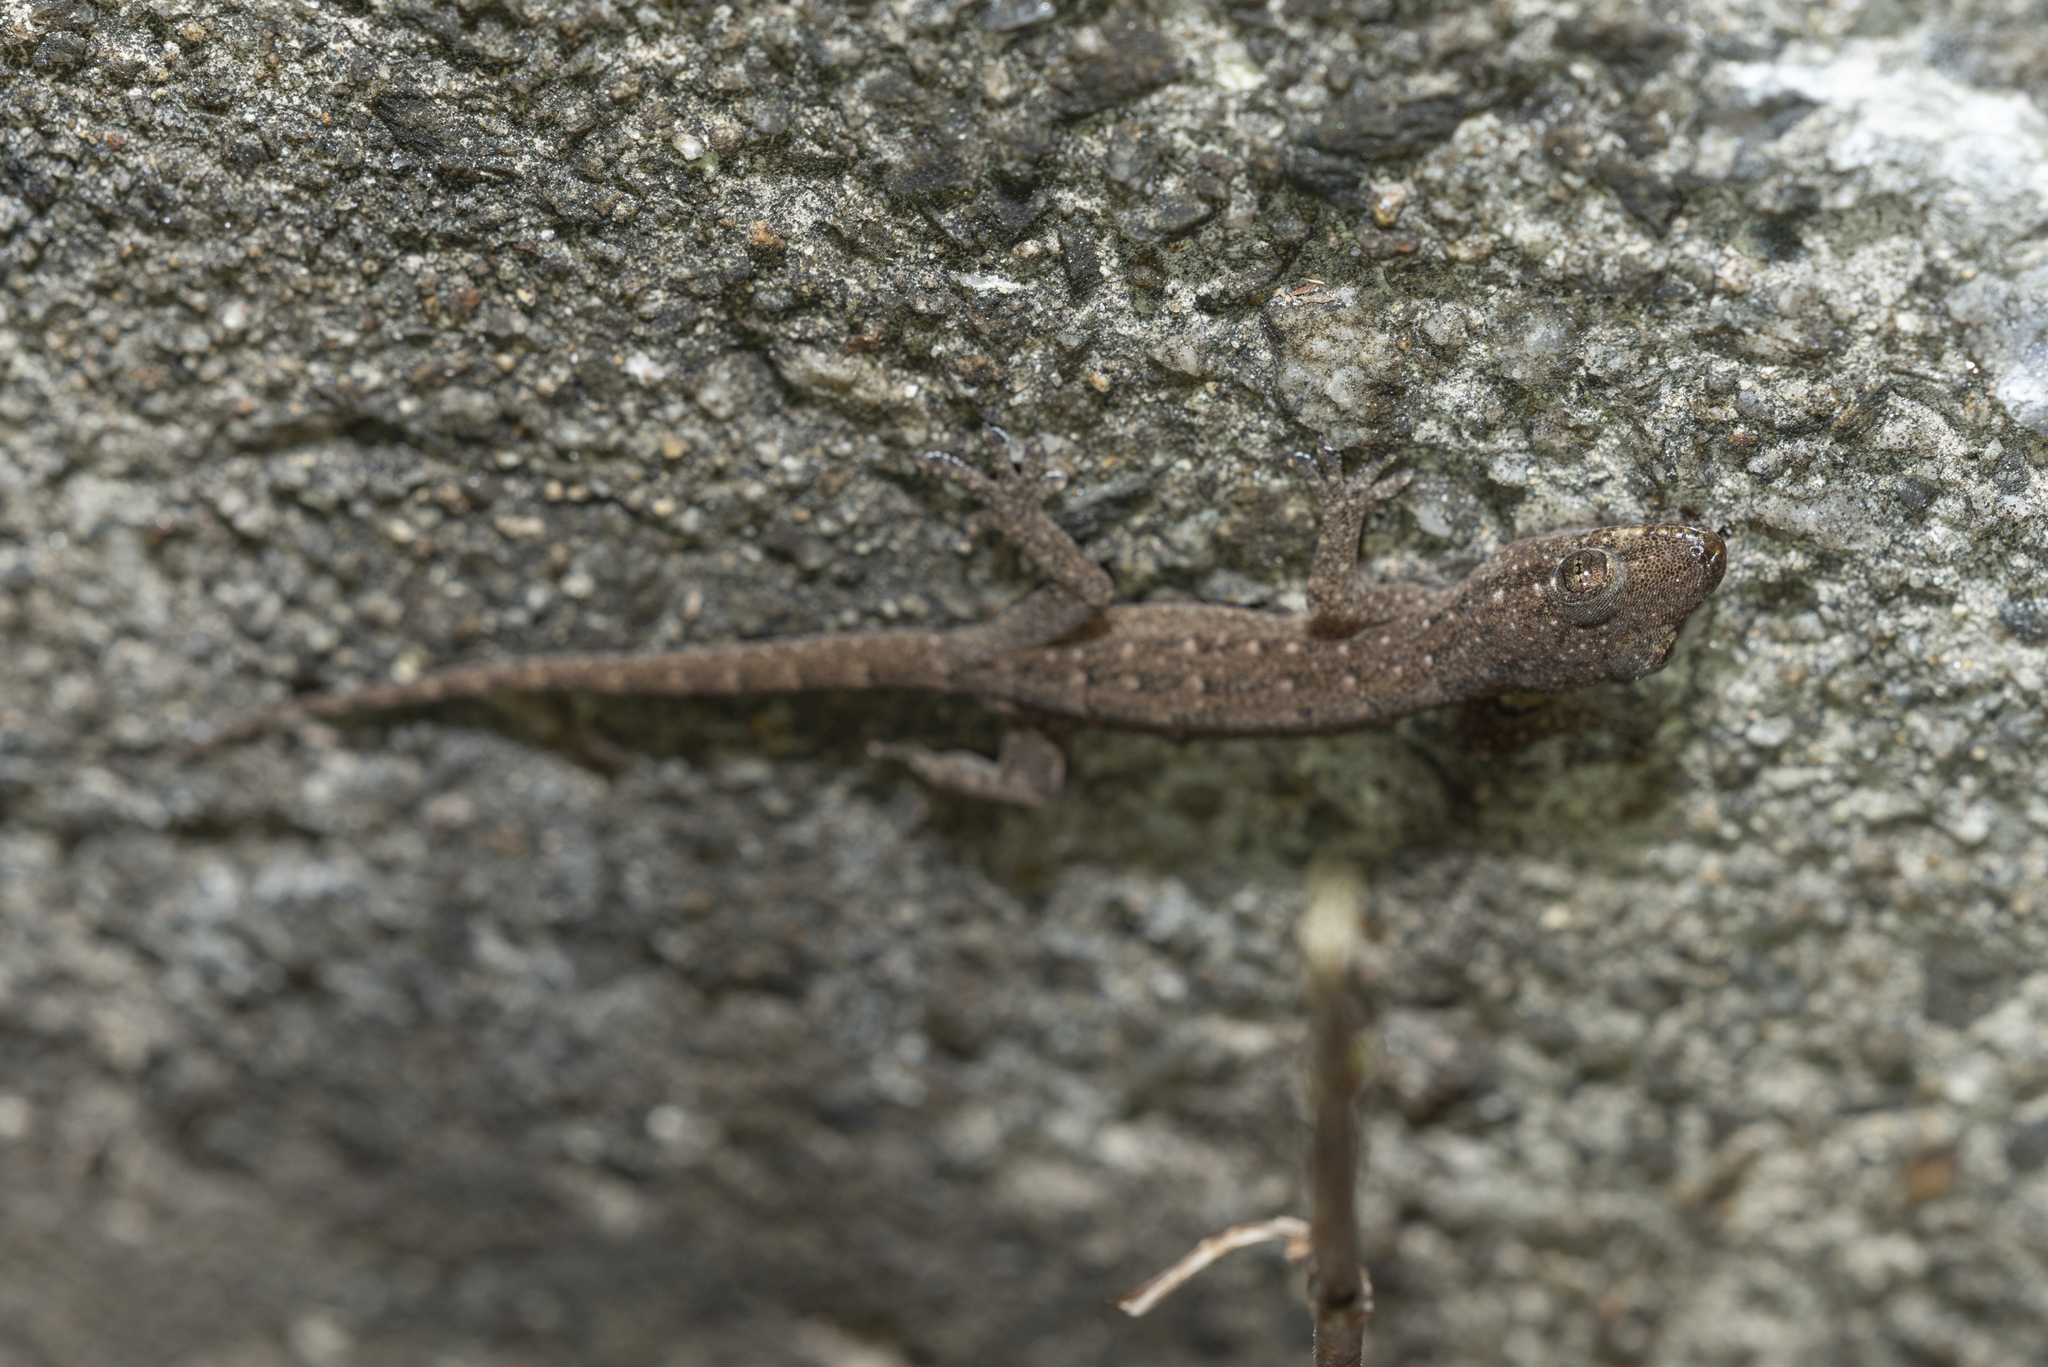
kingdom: Animalia
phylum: Chordata
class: Squamata
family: Gekkonidae
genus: Hemidactylus
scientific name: Hemidactylus garnotii
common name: Indo-pacific gecko
